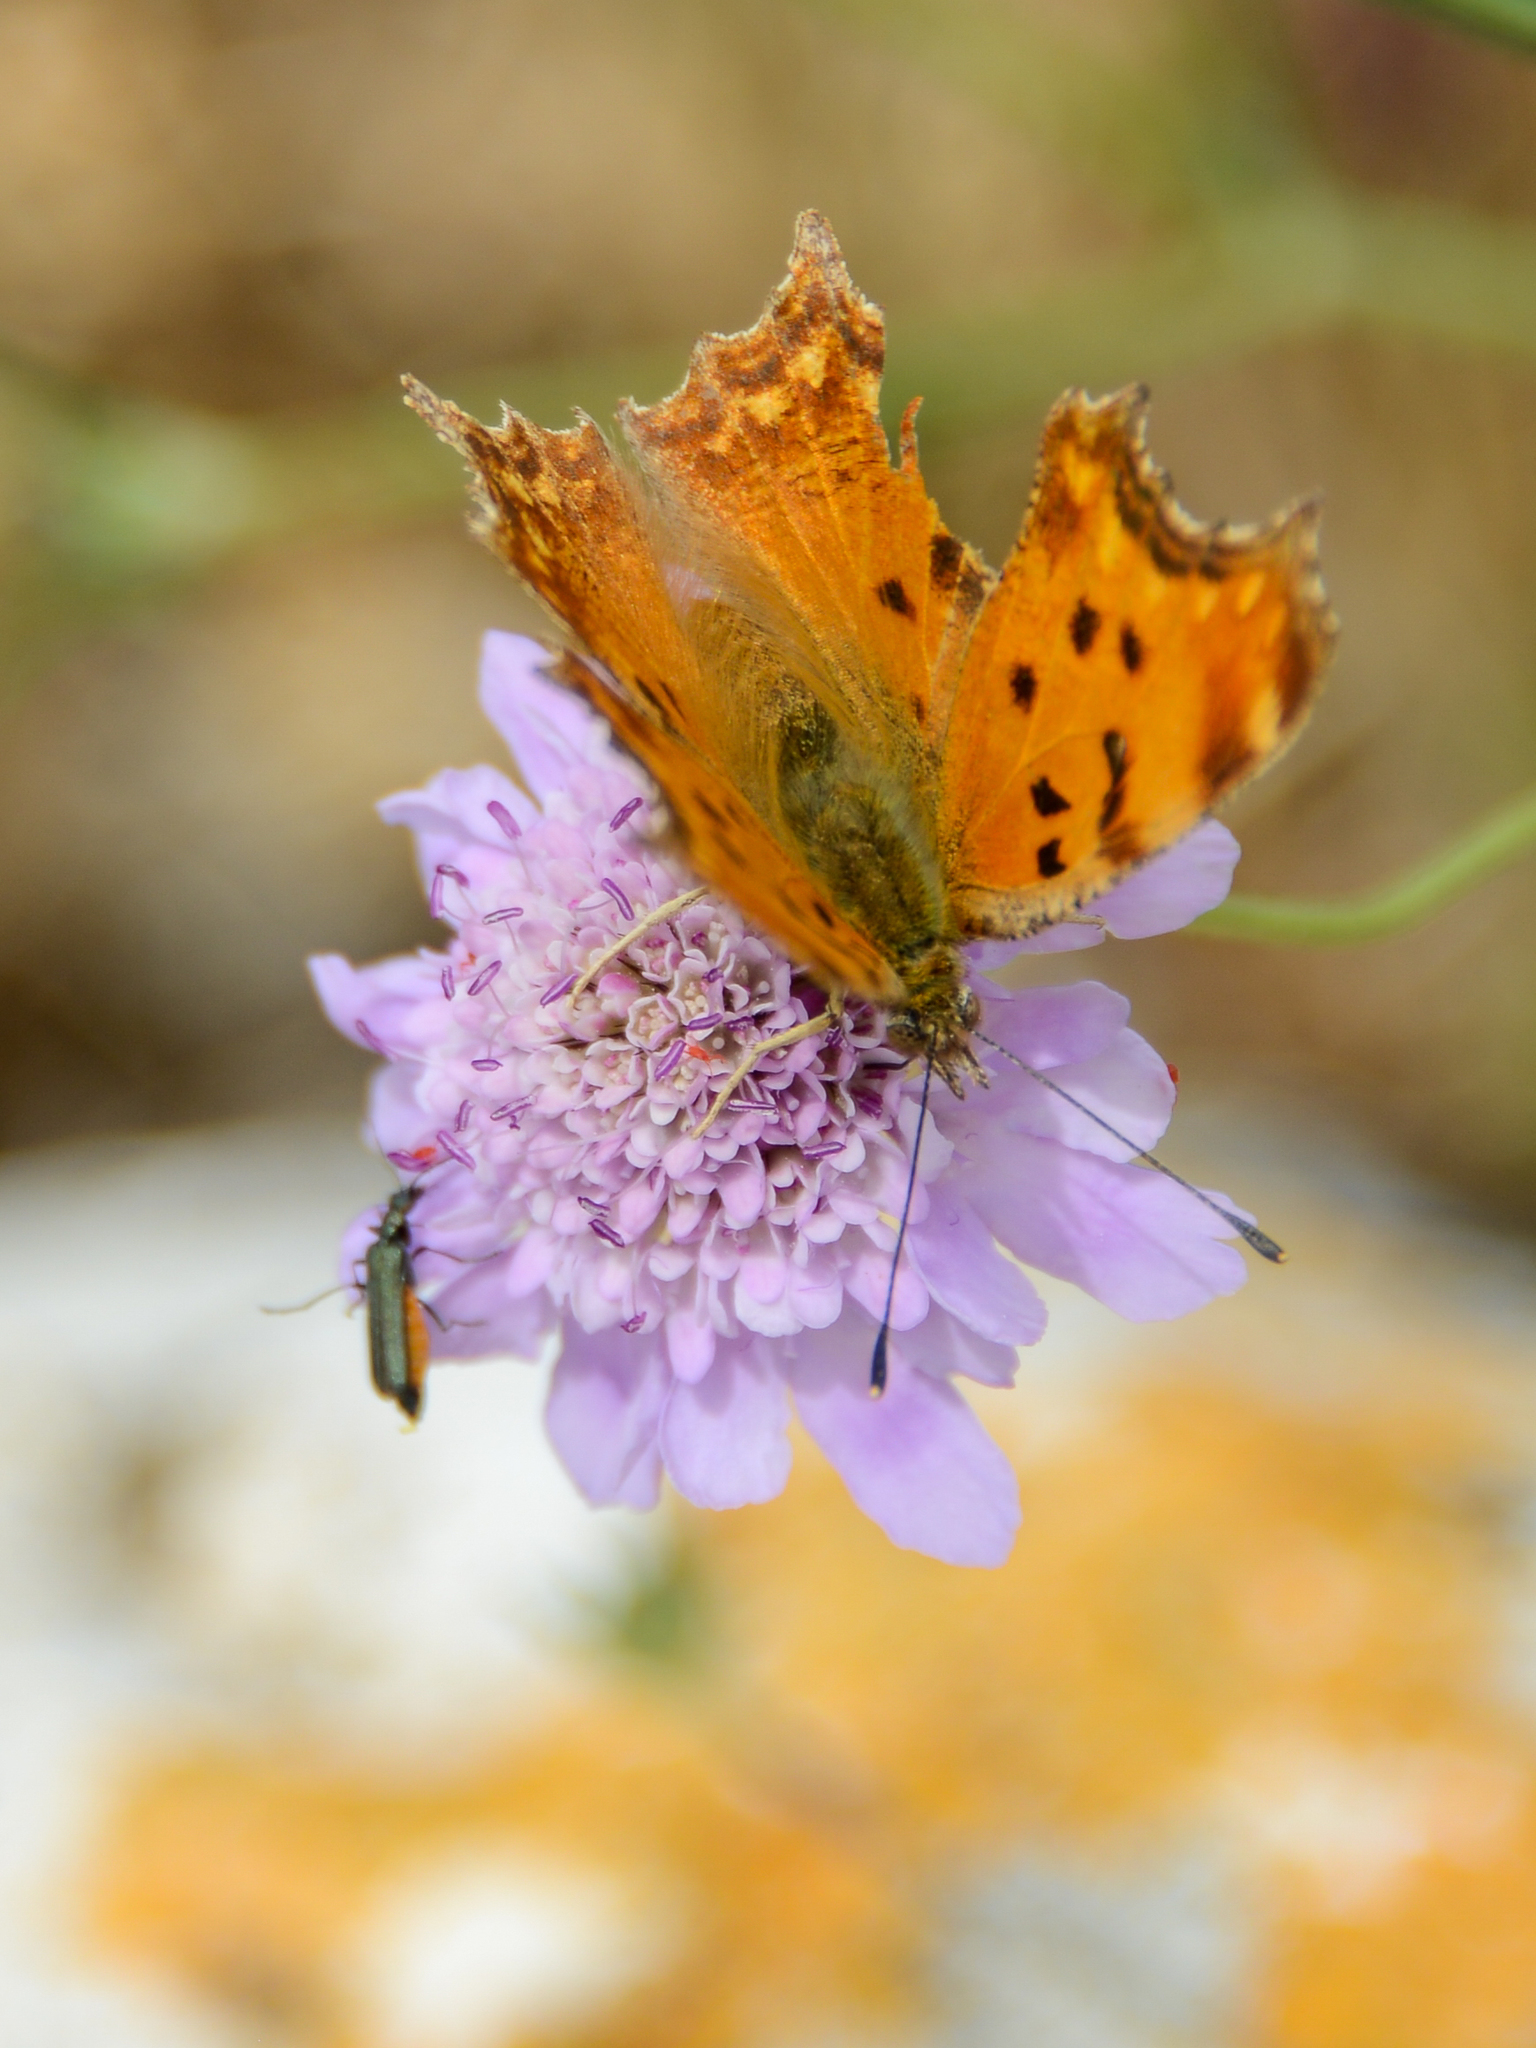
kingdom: Animalia
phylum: Arthropoda
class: Insecta
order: Lepidoptera
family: Nymphalidae
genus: Polygonia
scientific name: Polygonia egea
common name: Southern comma
